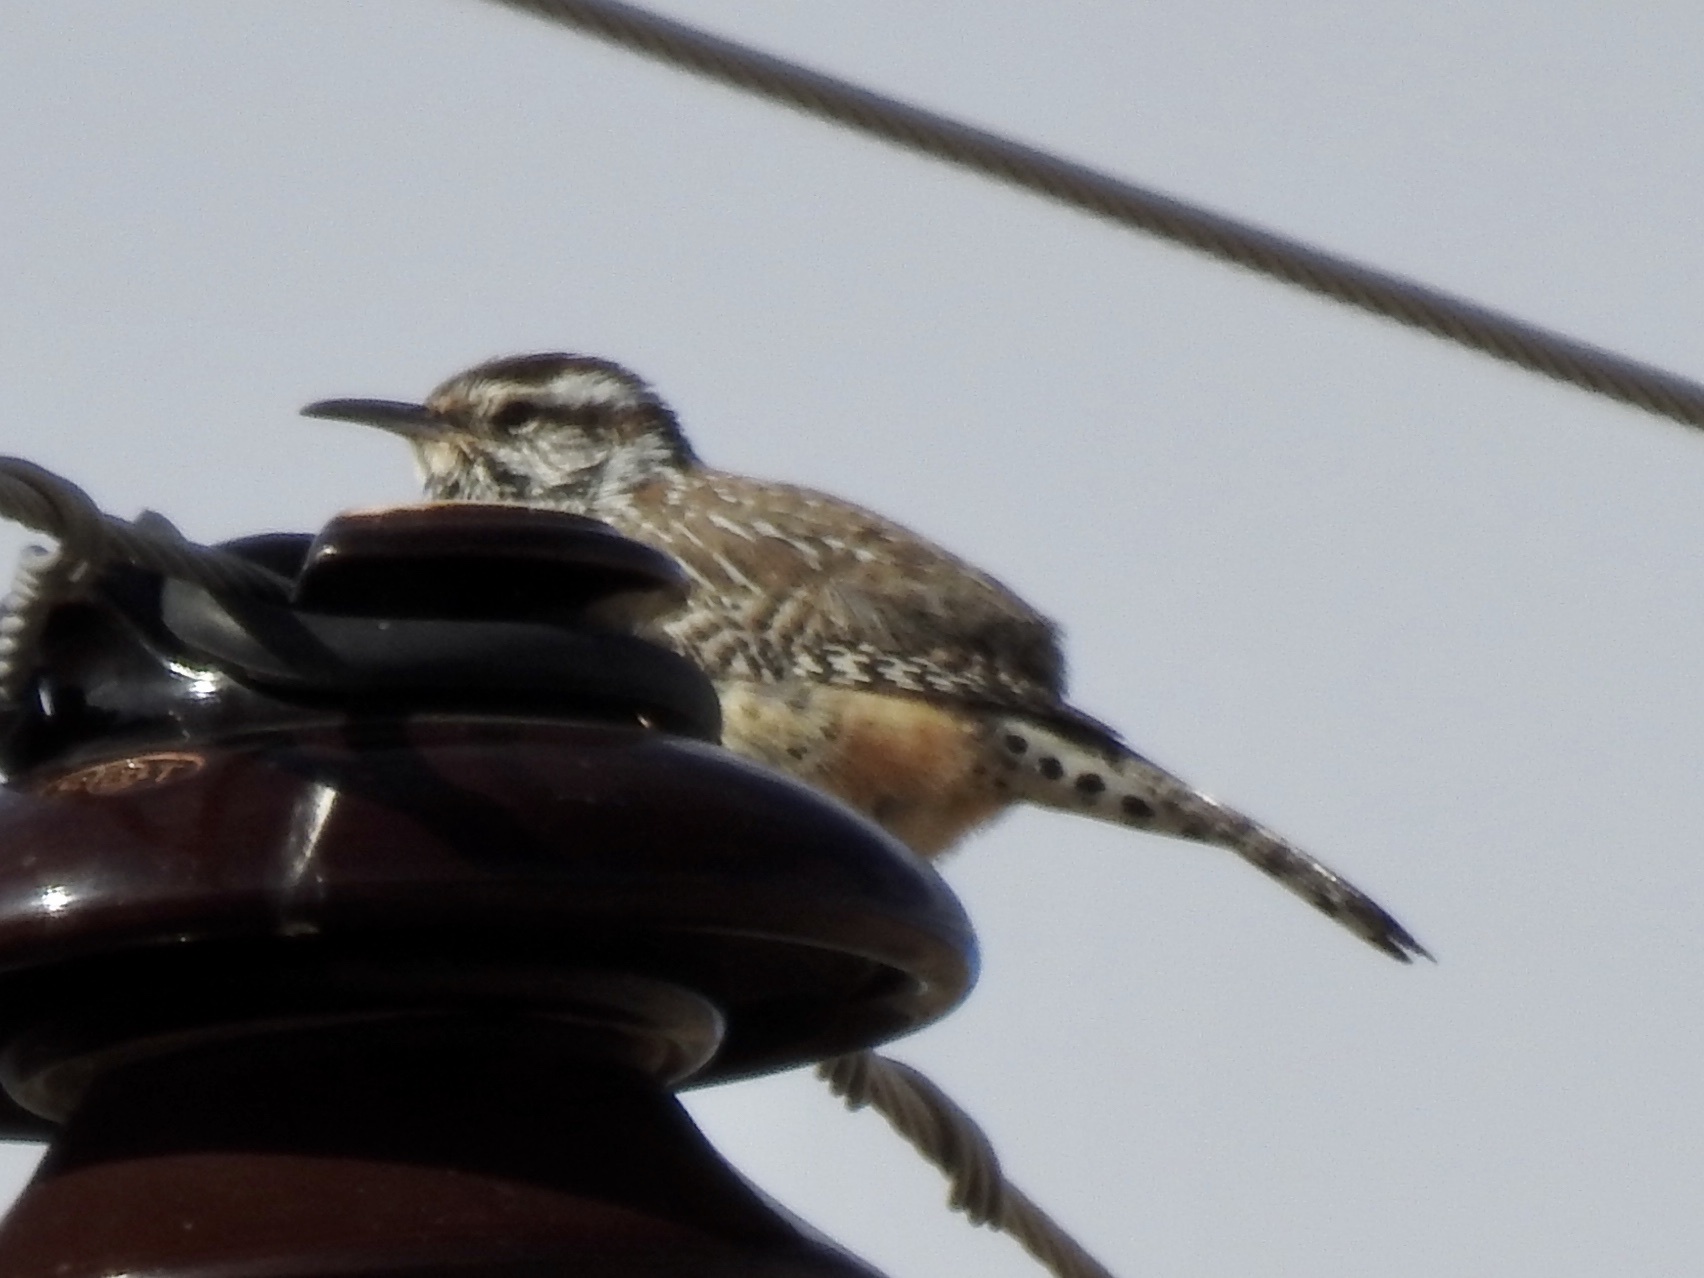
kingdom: Animalia
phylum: Chordata
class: Aves
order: Passeriformes
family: Troglodytidae
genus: Campylorhynchus
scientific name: Campylorhynchus brunneicapillus
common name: Cactus wren
